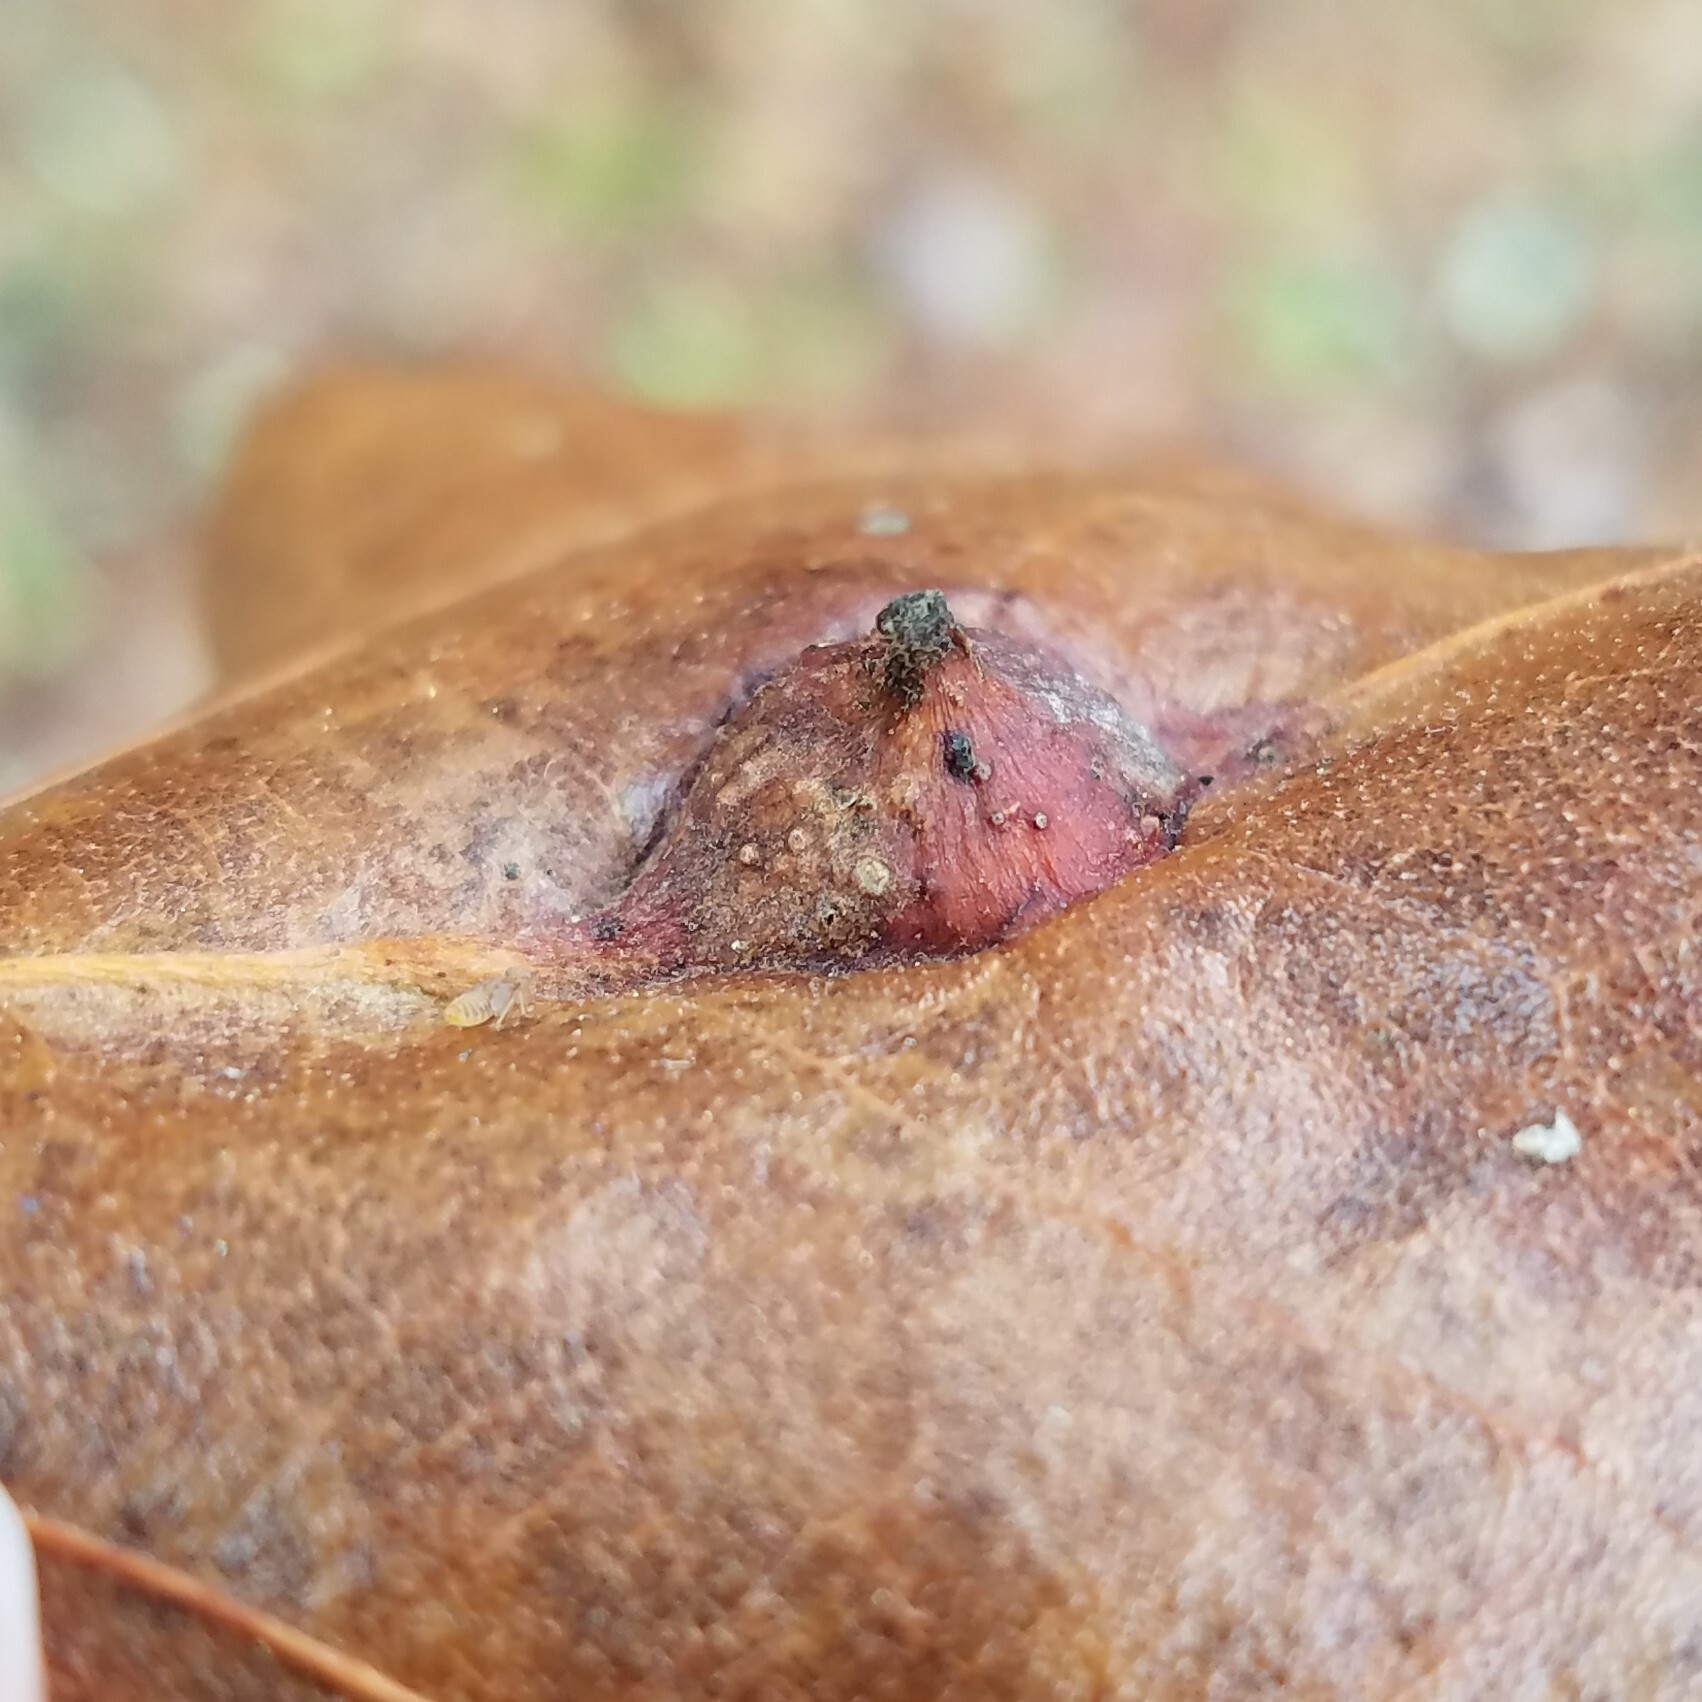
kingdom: Animalia
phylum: Arthropoda
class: Insecta
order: Hymenoptera
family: Cynipidae
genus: Andricus
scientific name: Andricus
